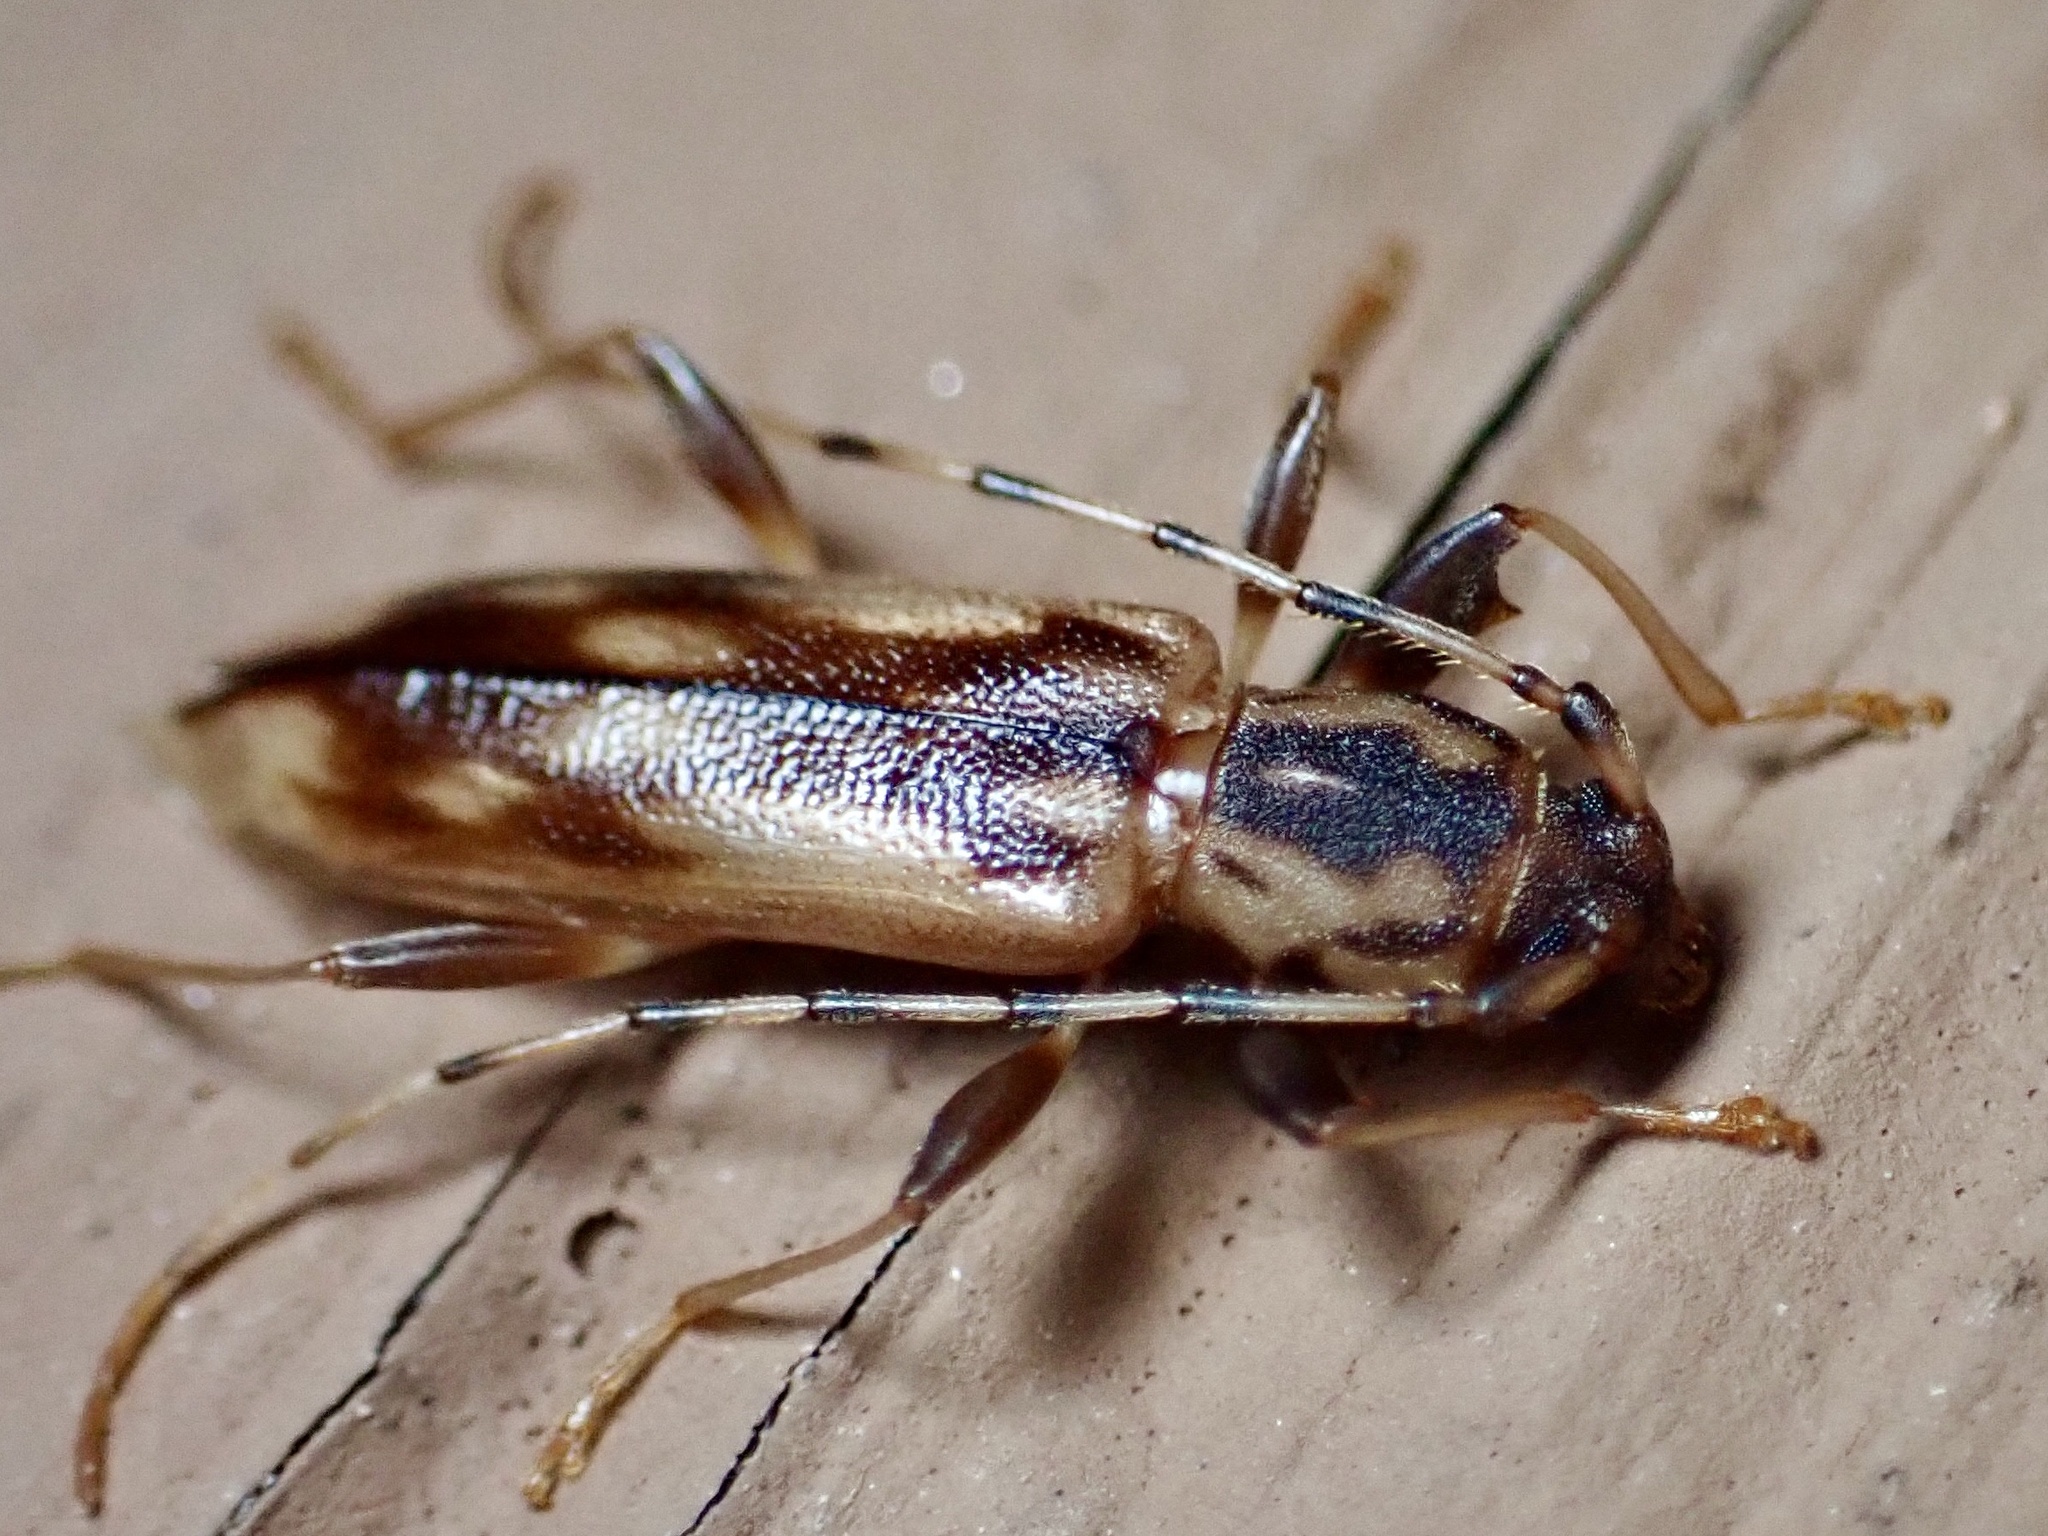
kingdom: Animalia
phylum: Arthropoda
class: Insecta
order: Coleoptera
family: Cerambycidae
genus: Curius
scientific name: Curius dentatus
